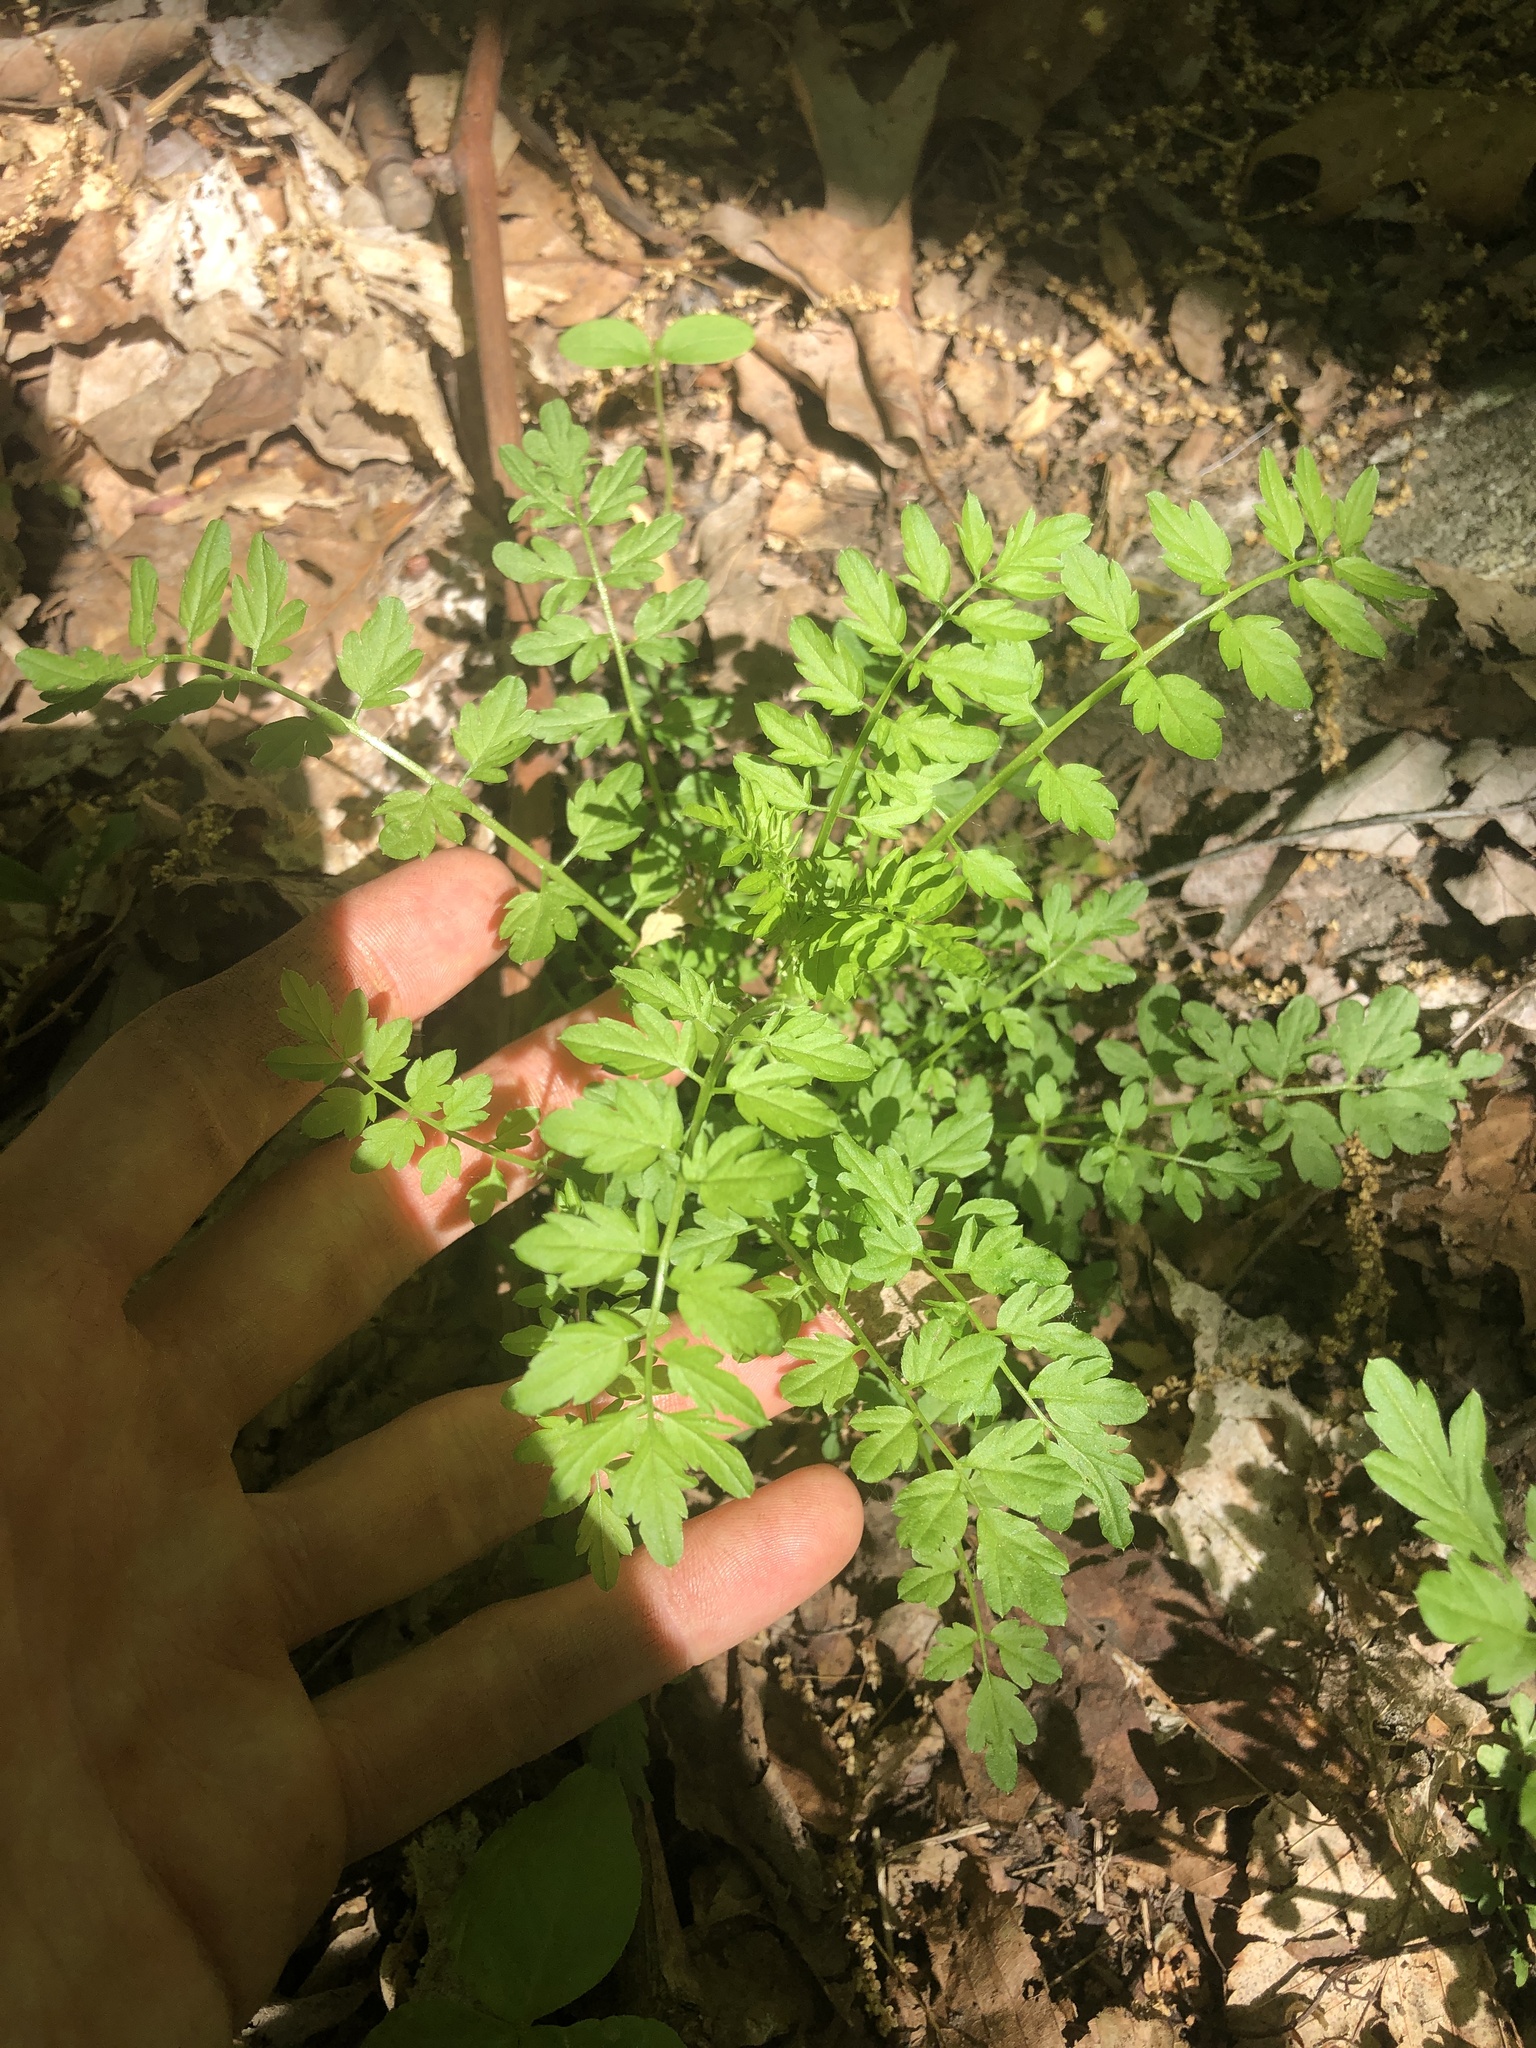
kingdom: Plantae
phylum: Tracheophyta
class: Magnoliopsida
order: Brassicales
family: Brassicaceae
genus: Cardamine
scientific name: Cardamine impatiens
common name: Narrow-leaved bitter-cress
